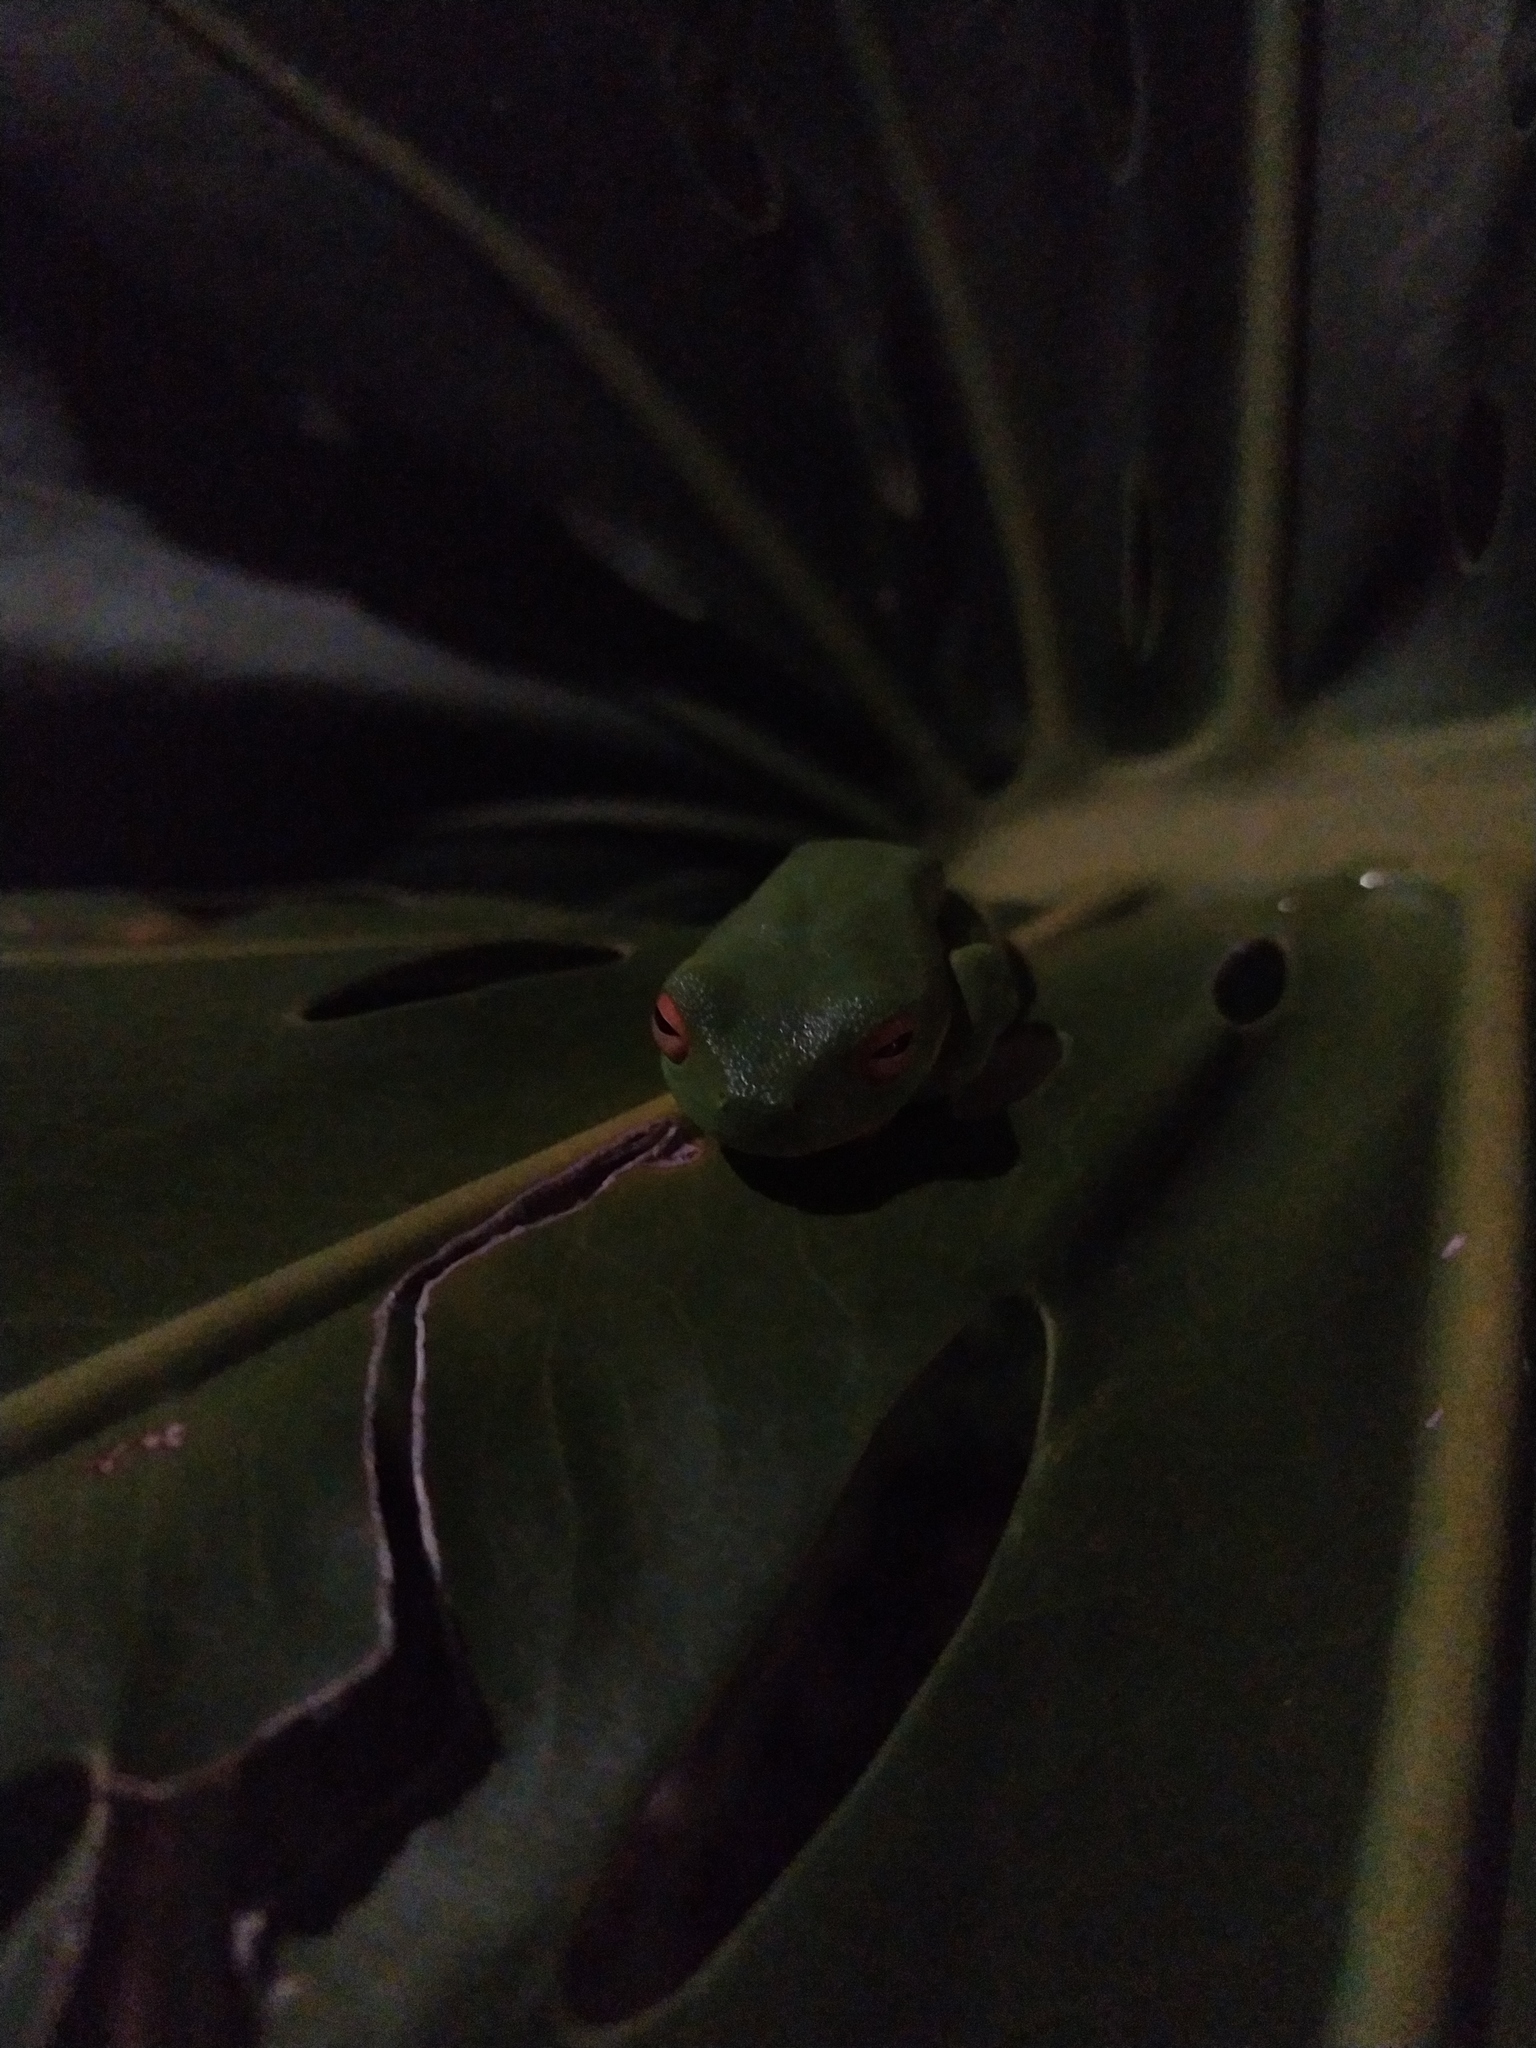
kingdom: Animalia
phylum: Chordata
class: Amphibia
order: Anura
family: Pelodryadidae
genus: Ranoidea
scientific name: Ranoidea gracilenta
